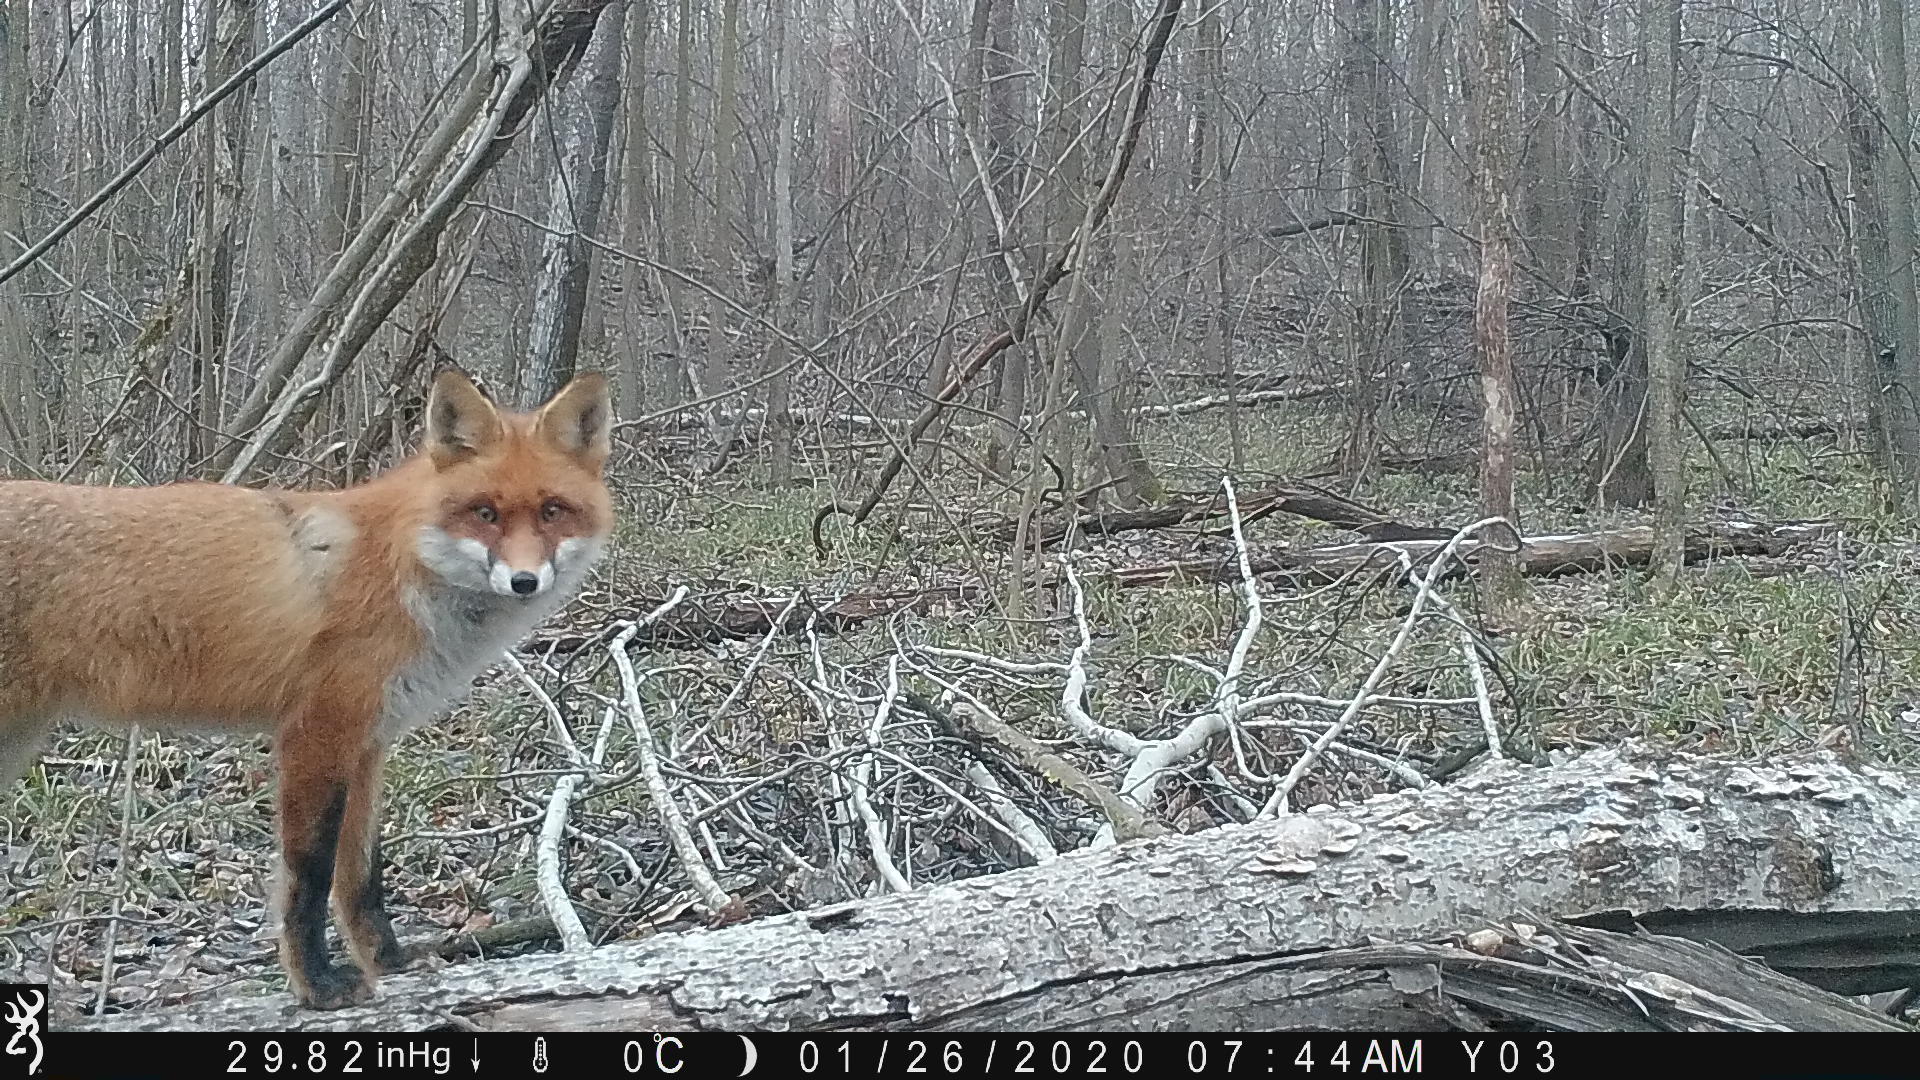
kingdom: Animalia
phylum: Chordata
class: Mammalia
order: Carnivora
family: Canidae
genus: Vulpes
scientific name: Vulpes vulpes
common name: Red fox
